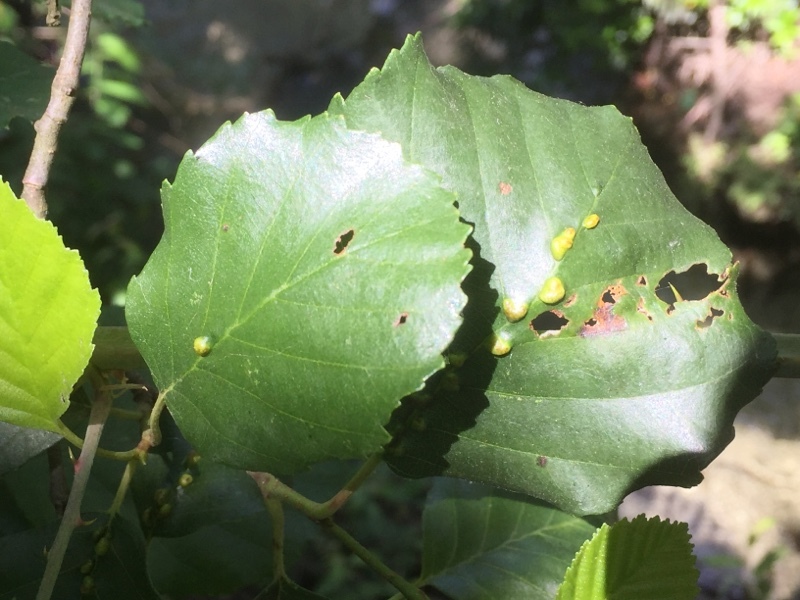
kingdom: Animalia
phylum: Arthropoda
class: Arachnida
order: Trombidiformes
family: Eriophyidae
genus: Eriophyes
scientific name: Eriophyes inangulis
